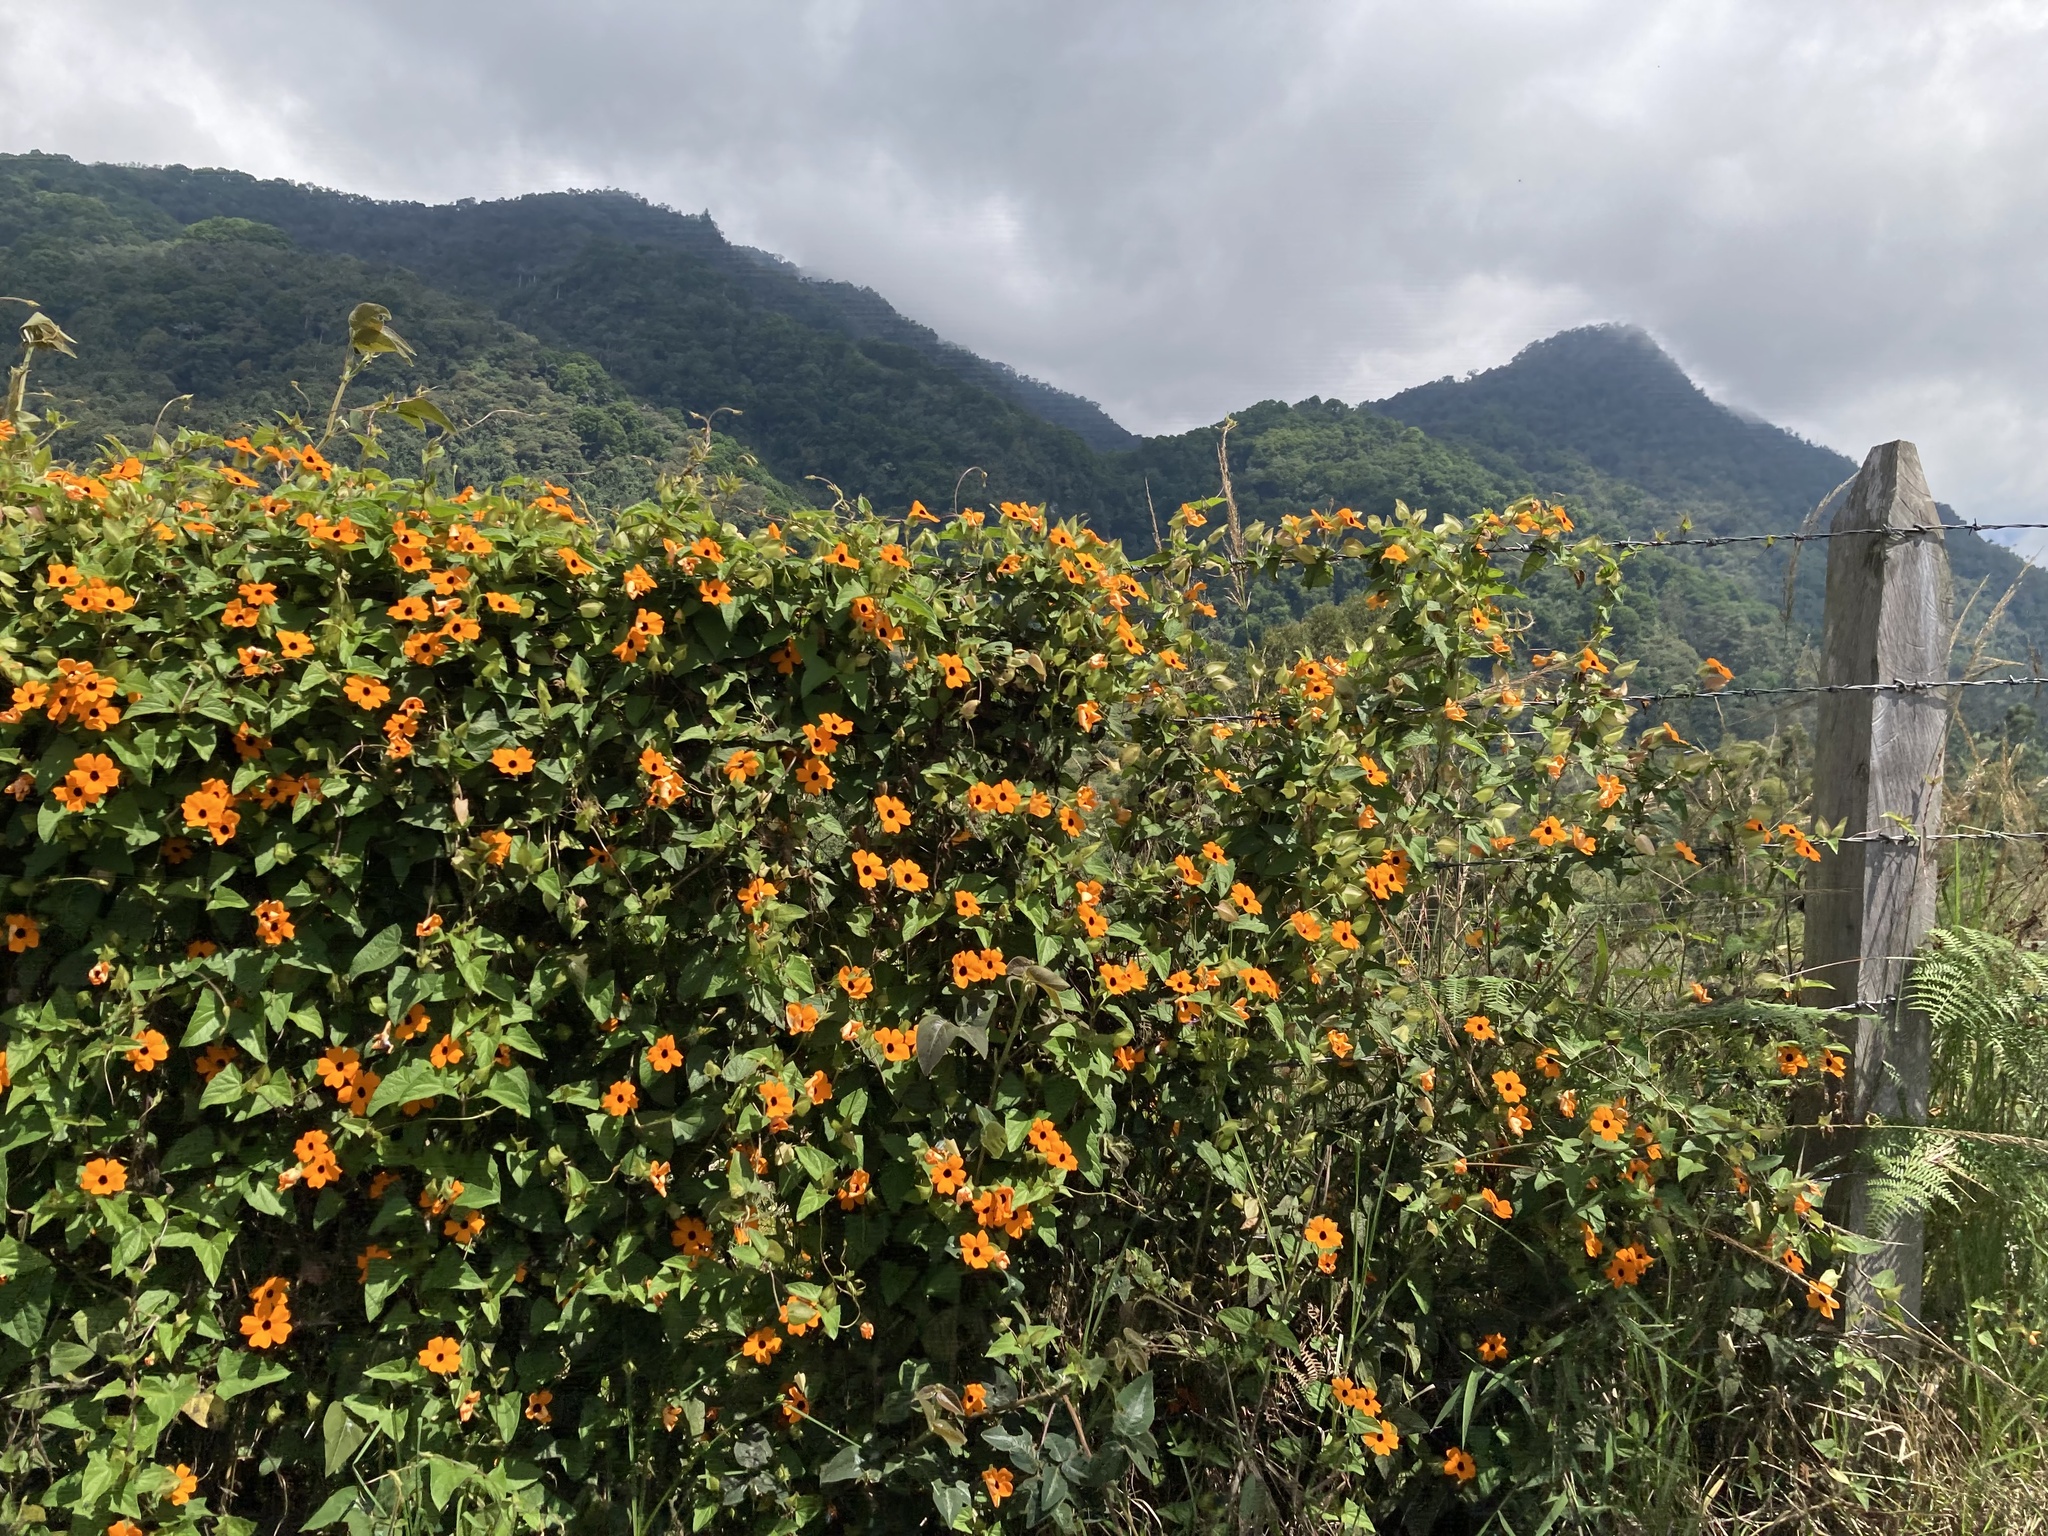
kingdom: Plantae
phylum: Tracheophyta
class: Magnoliopsida
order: Lamiales
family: Acanthaceae
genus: Thunbergia
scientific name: Thunbergia alata
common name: Blackeyed susan vine
